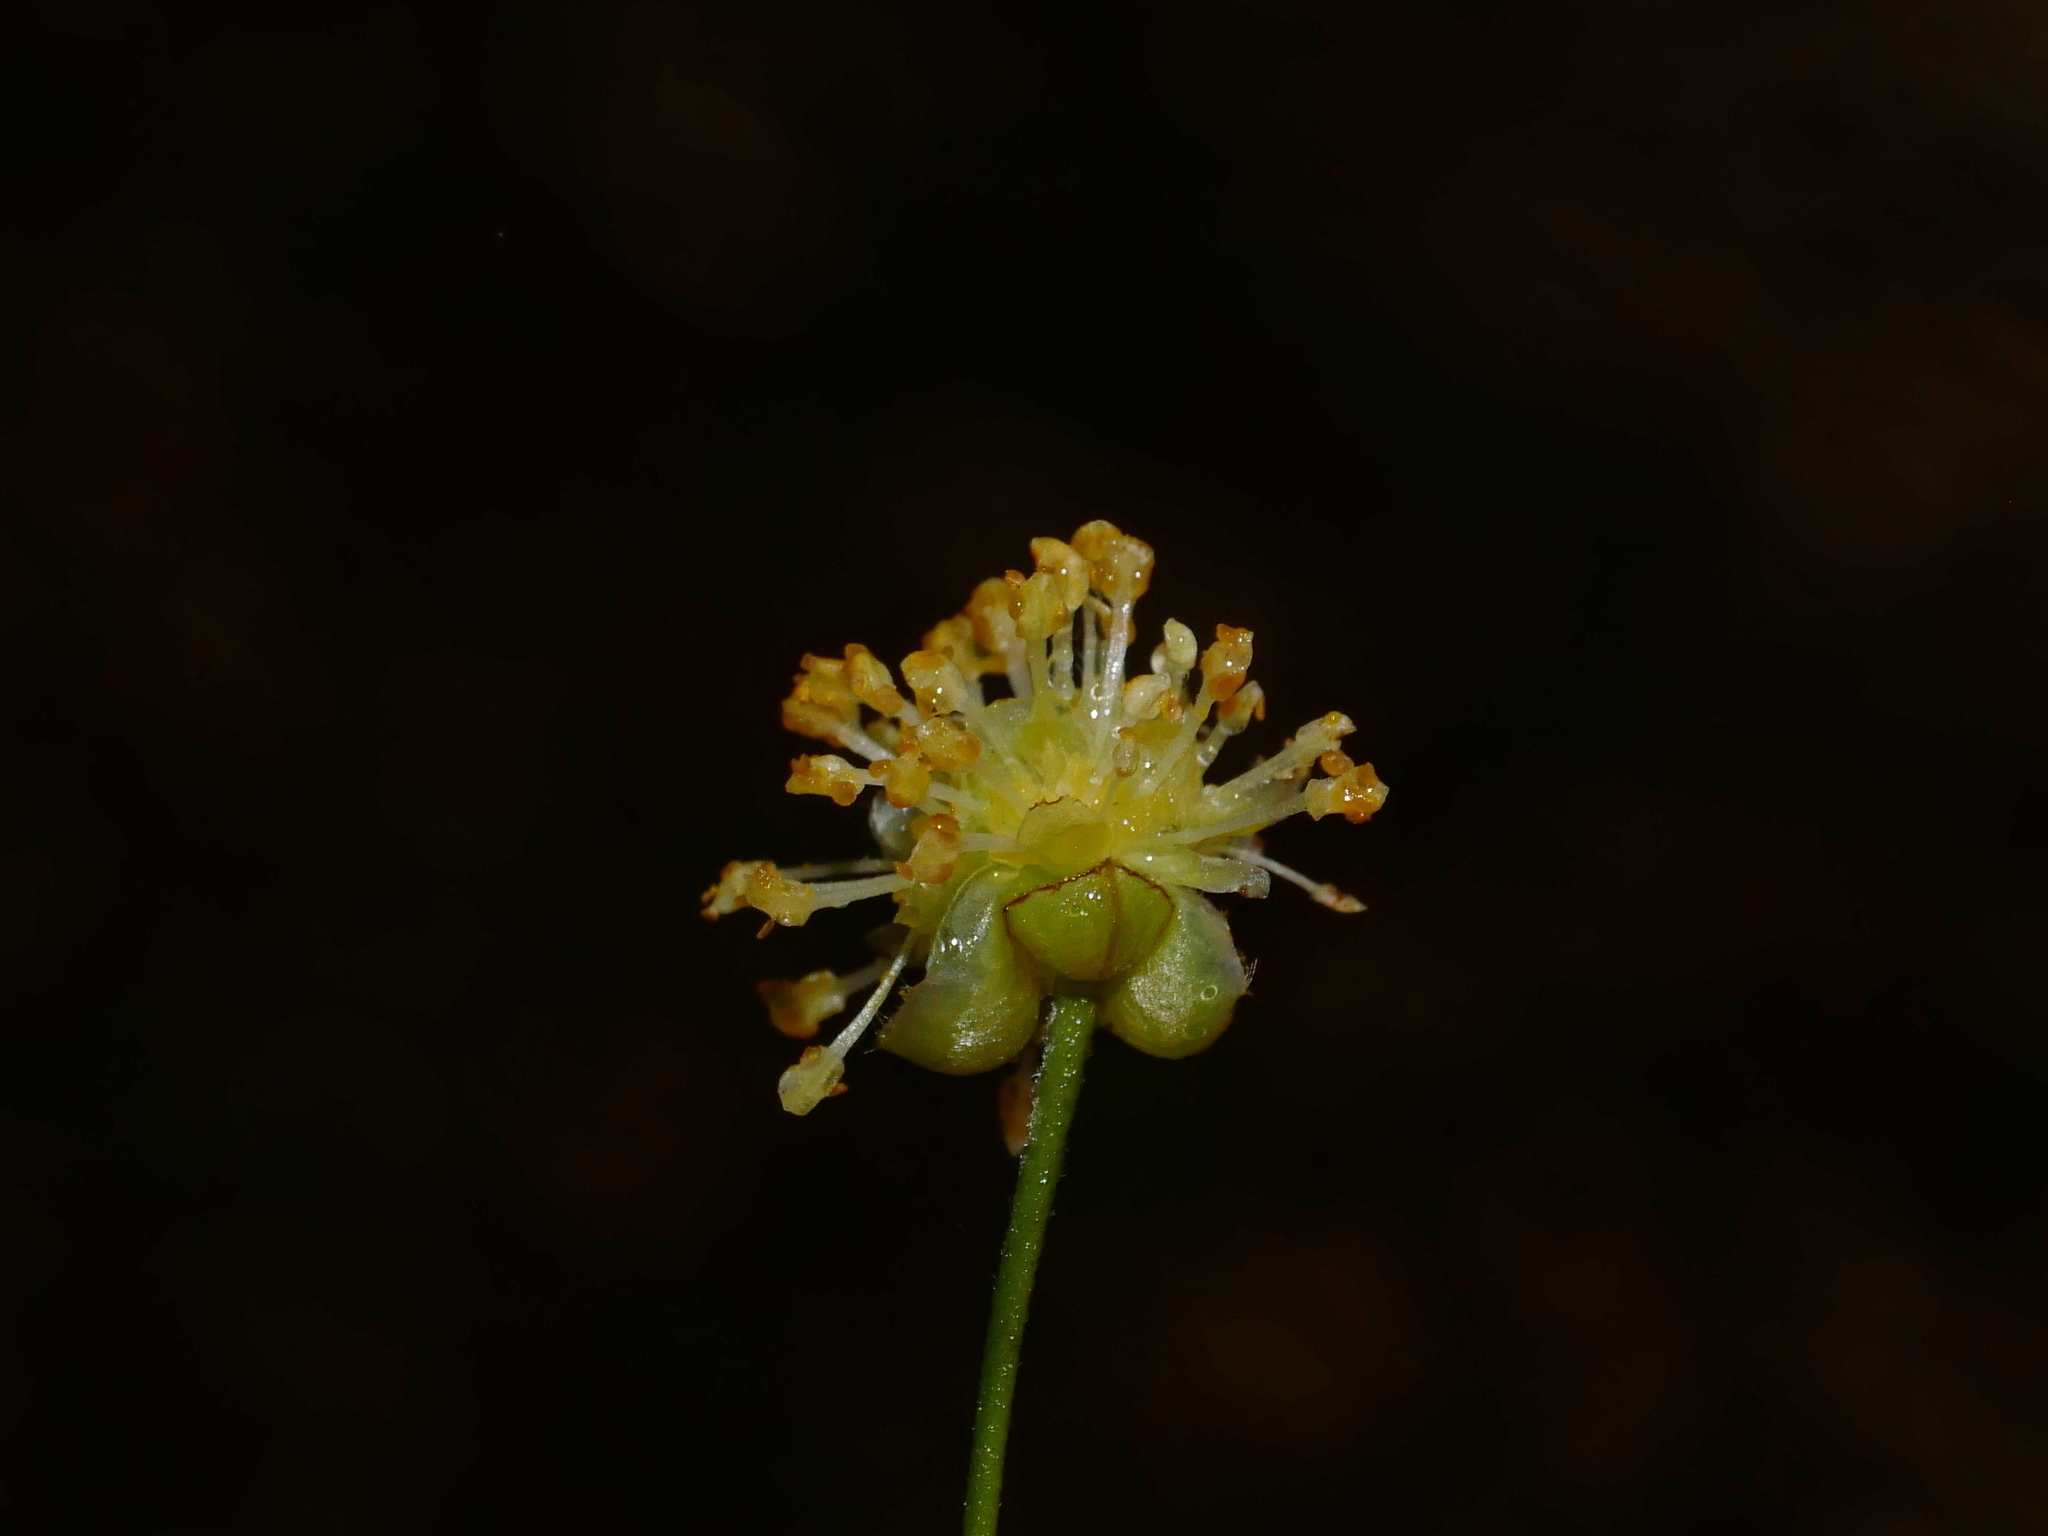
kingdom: Plantae
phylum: Tracheophyta
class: Magnoliopsida
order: Laurales
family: Lauraceae
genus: Litsea
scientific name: Litsea morrisonensis
